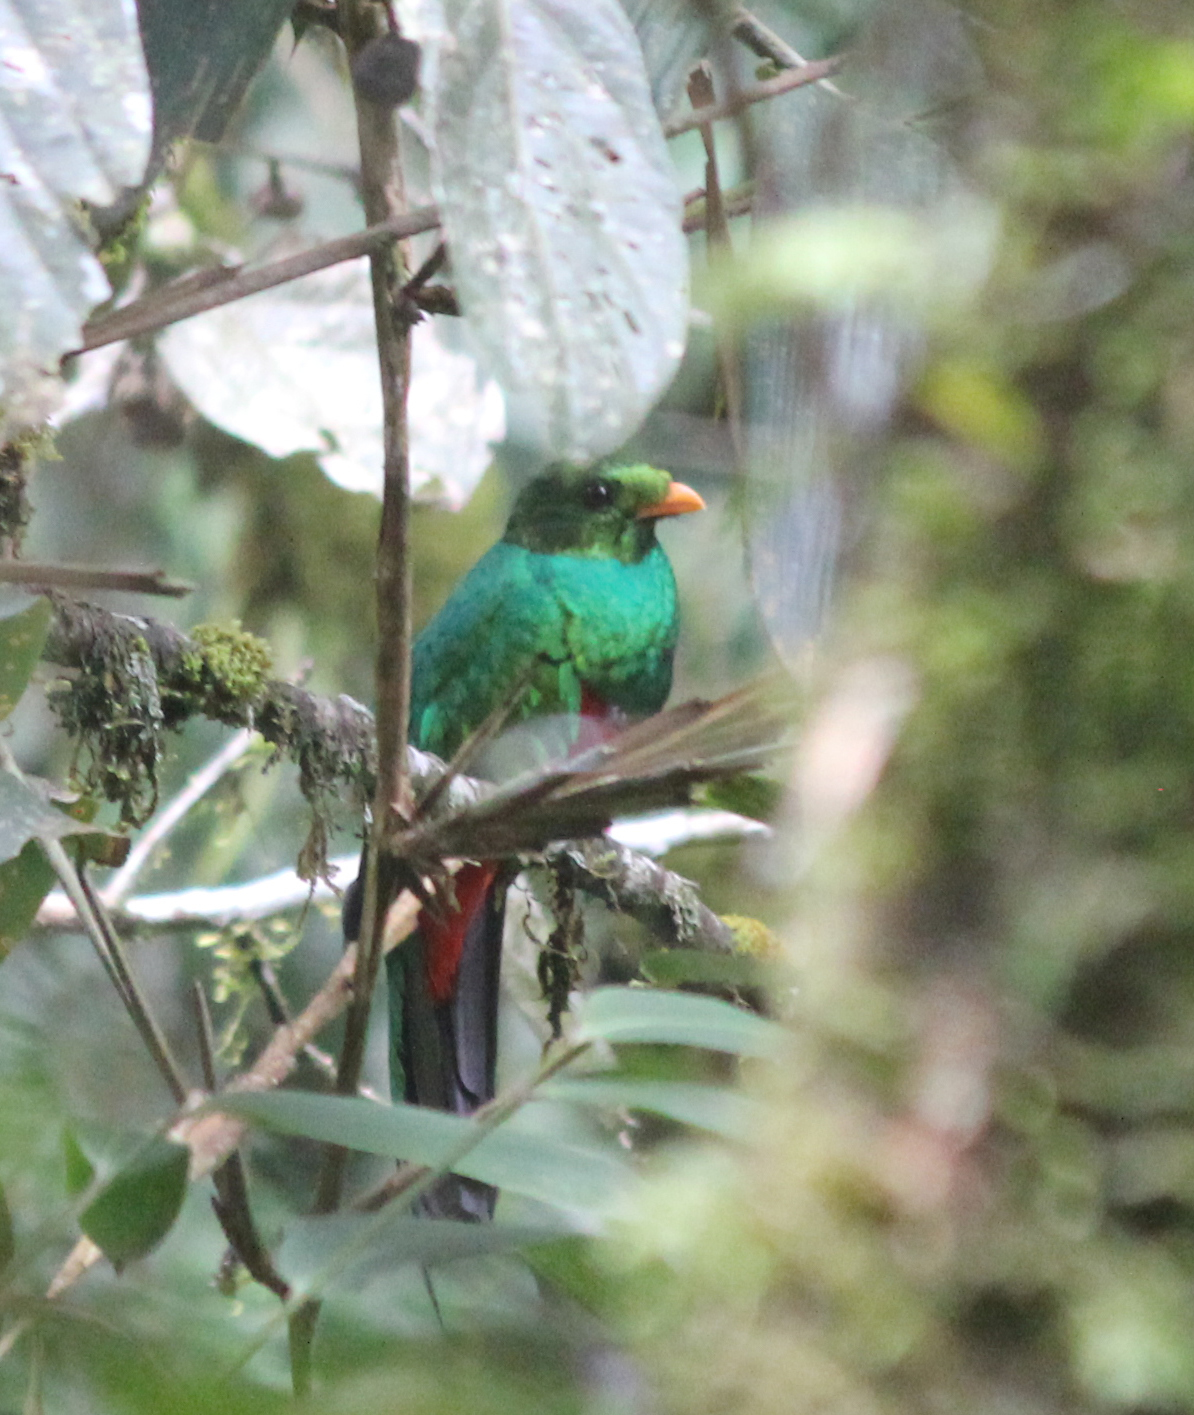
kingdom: Animalia
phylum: Chordata
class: Aves
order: Trogoniformes
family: Trogonidae
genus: Pharomachrus
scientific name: Pharomachrus auriceps
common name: Golden-headed quetzal
